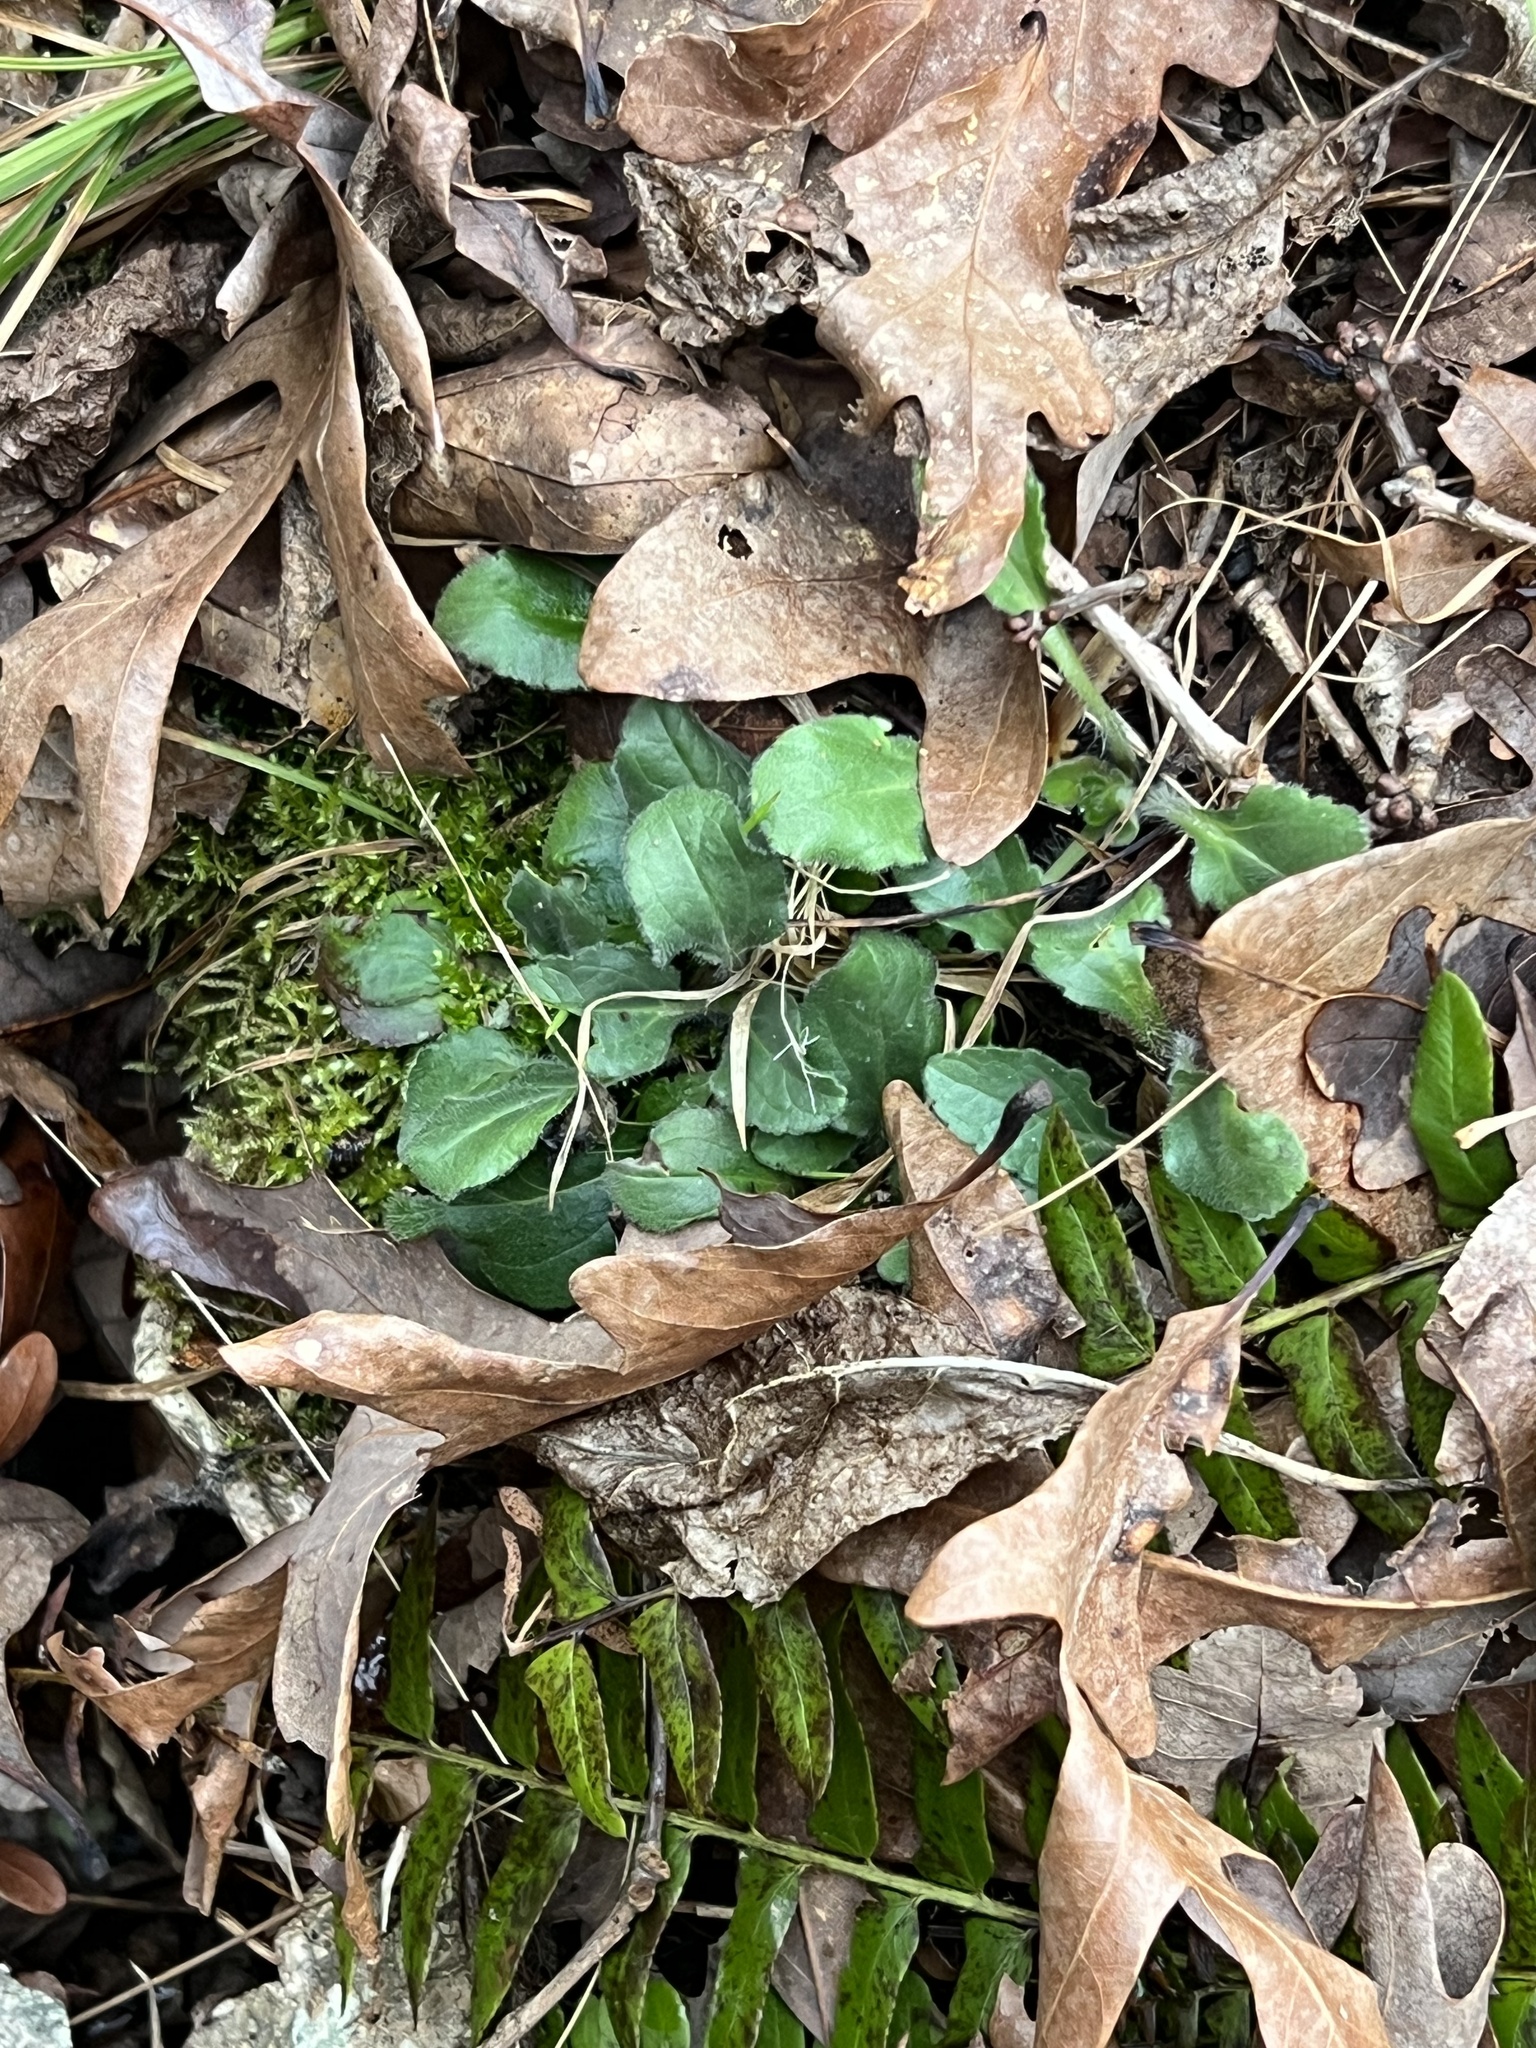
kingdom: Plantae
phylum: Tracheophyta
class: Magnoliopsida
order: Asterales
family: Asteraceae
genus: Chrysogonum
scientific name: Chrysogonum virginianum
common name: Golden-knee
